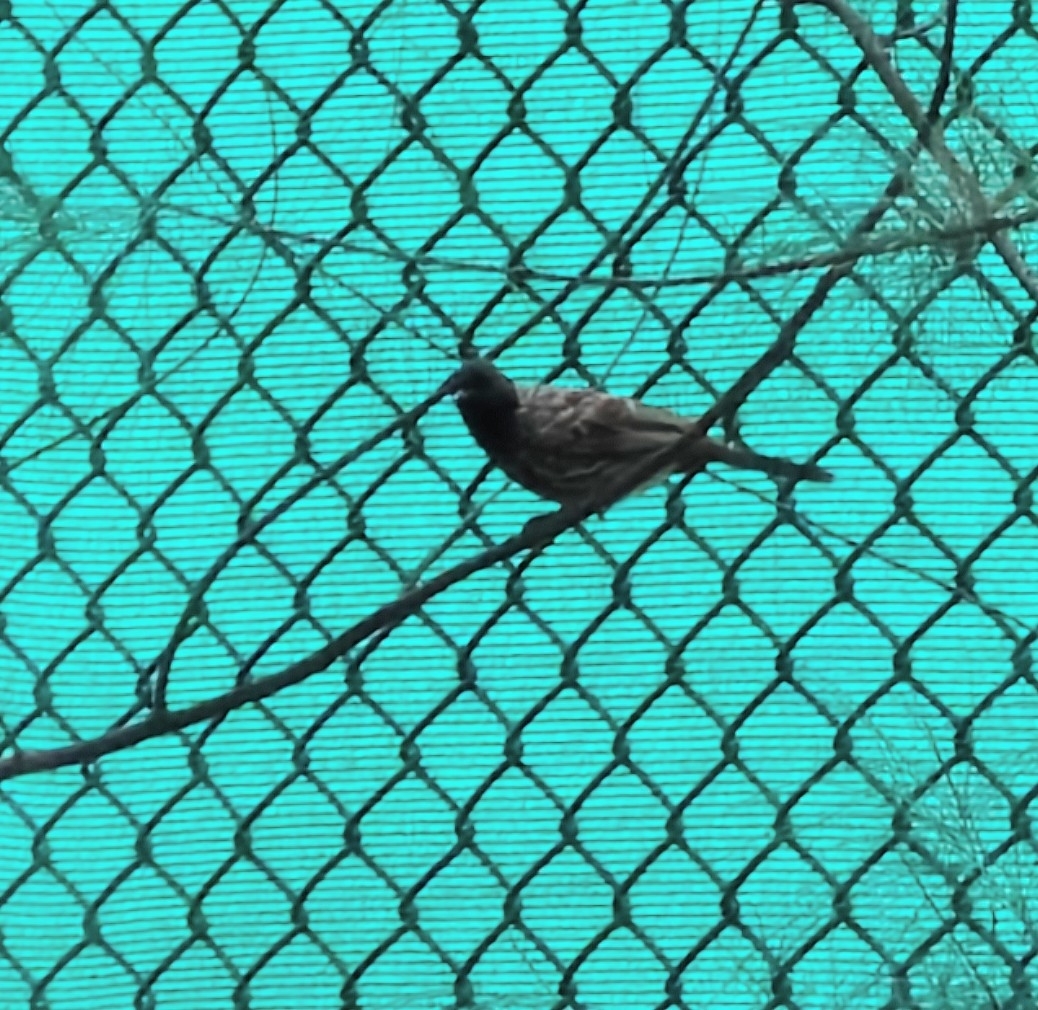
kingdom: Animalia
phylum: Chordata
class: Aves
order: Passeriformes
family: Pycnonotidae
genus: Pycnonotus
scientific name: Pycnonotus cafer
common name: Red-vented bulbul
